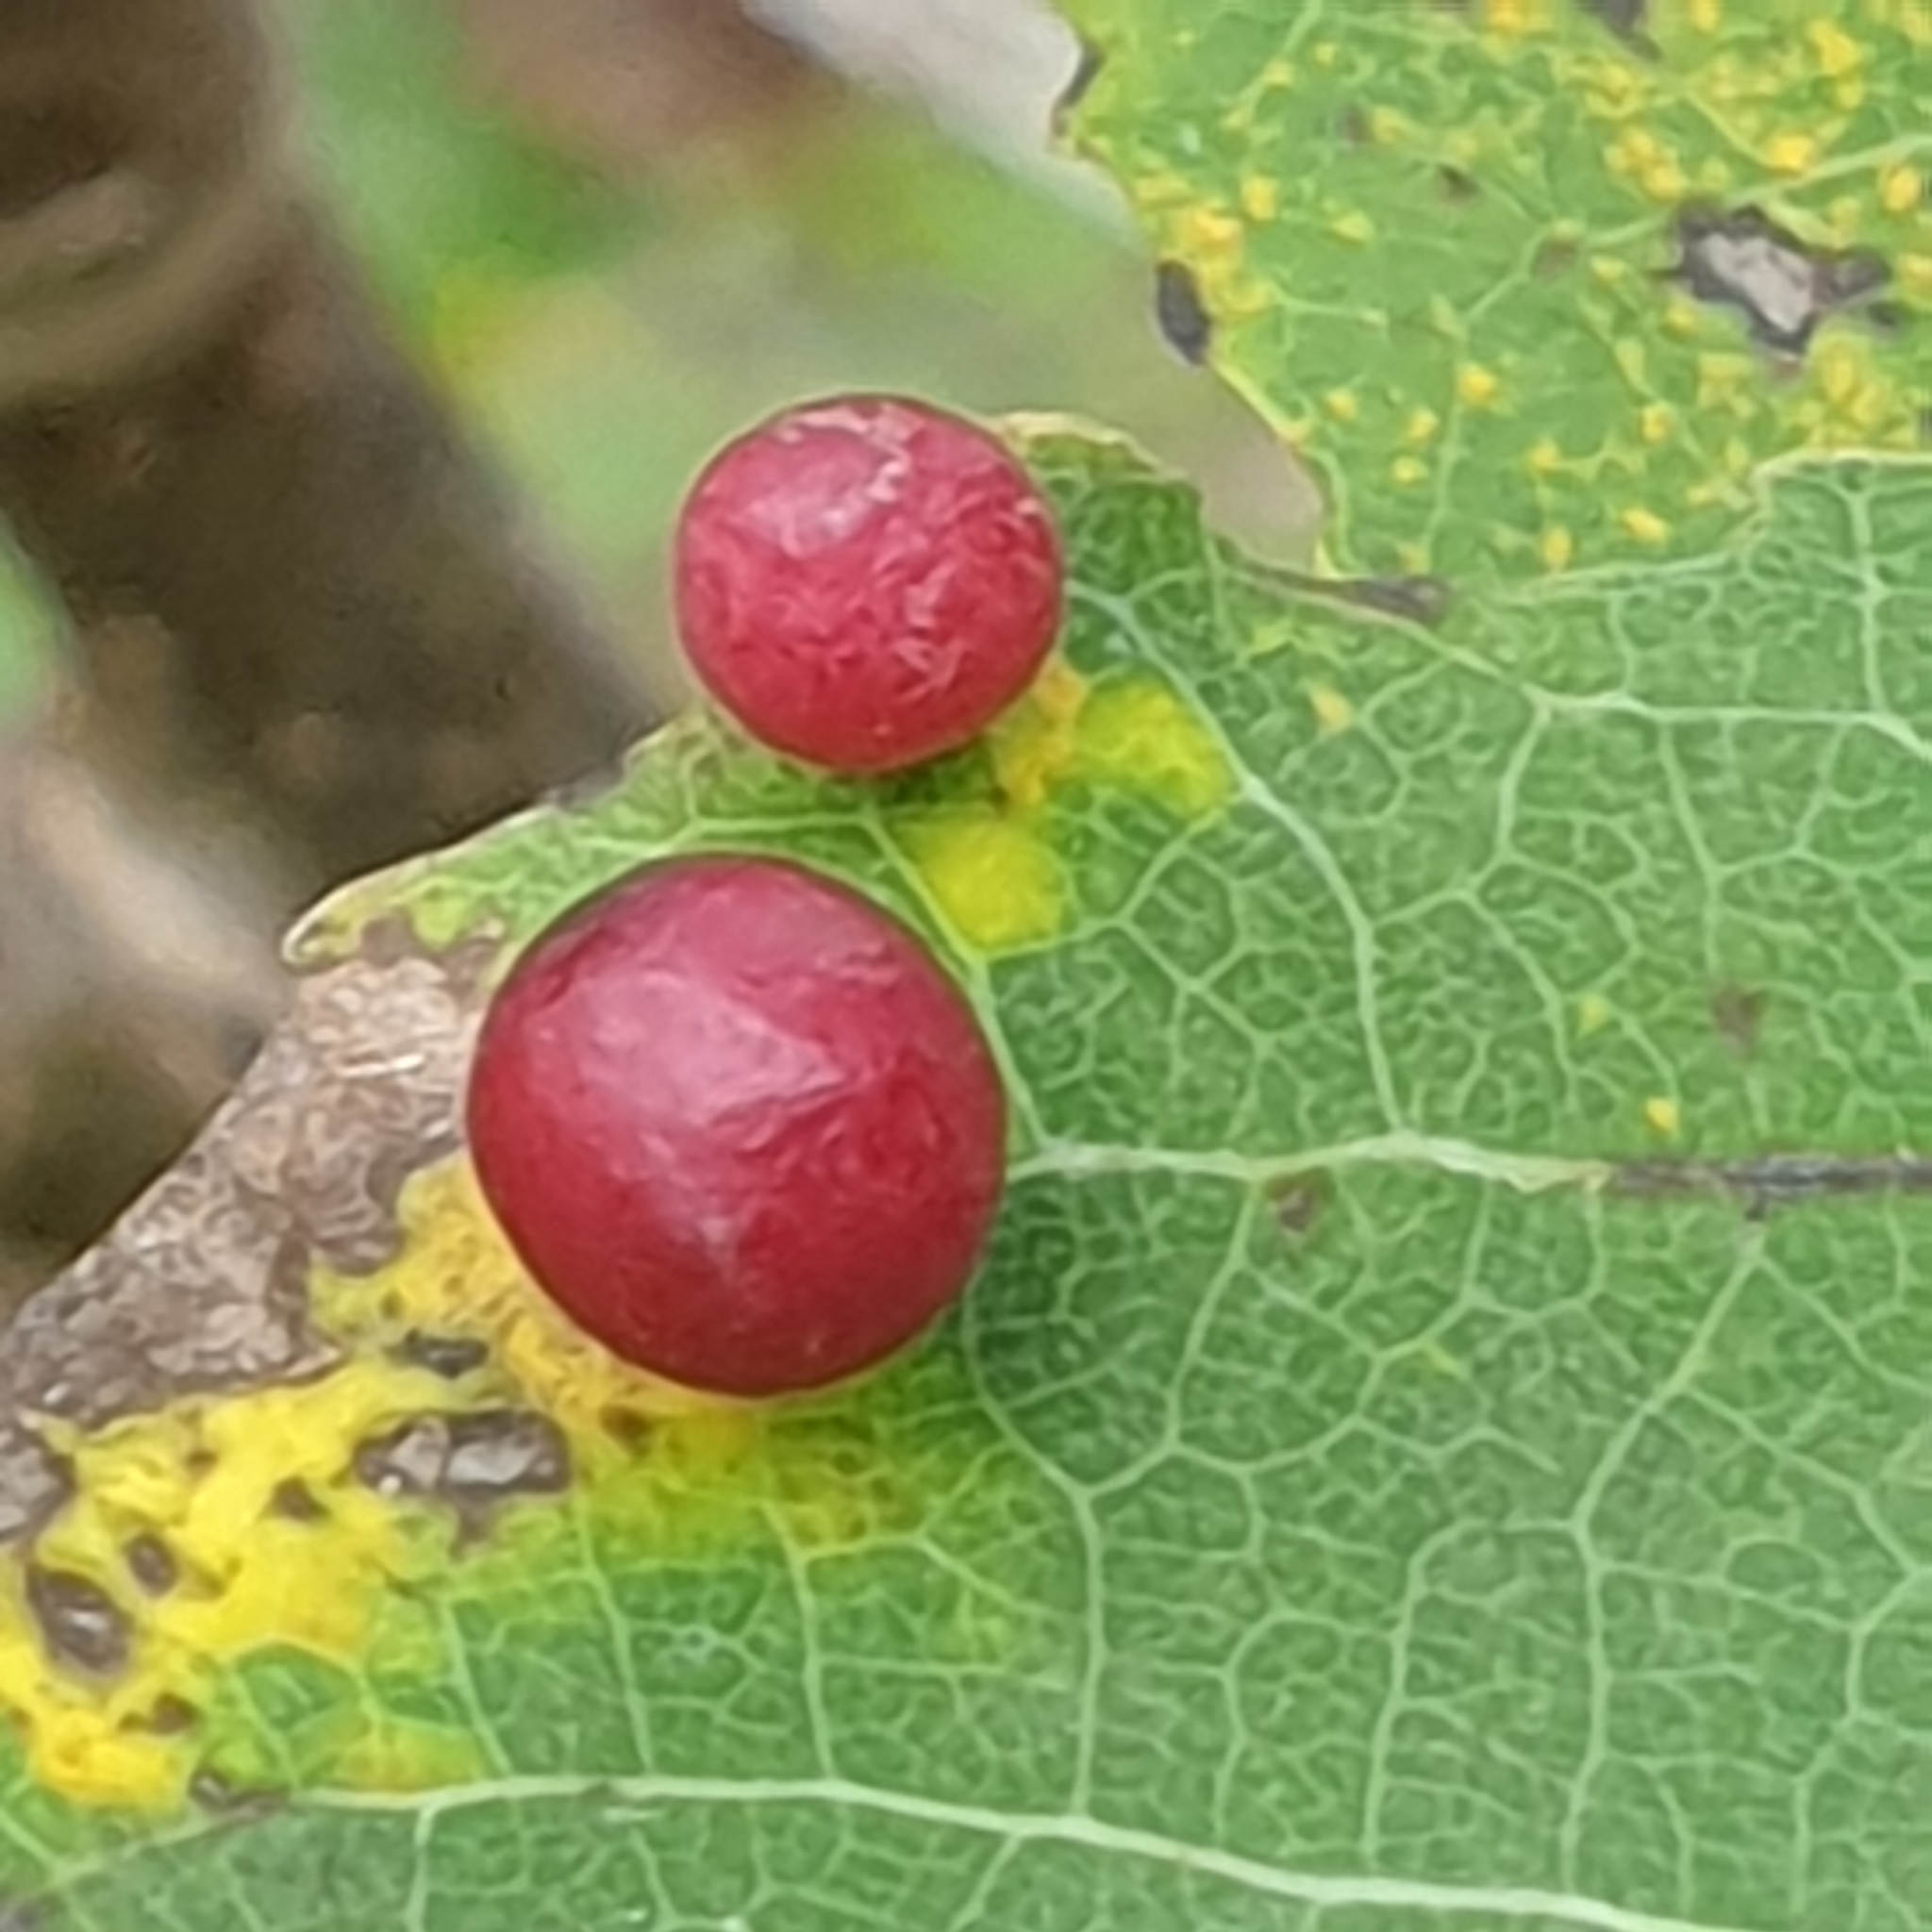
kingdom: Animalia
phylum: Arthropoda
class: Insecta
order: Diptera
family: Cecidomyiidae
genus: Harmandiola
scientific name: Harmandiola tremulae
